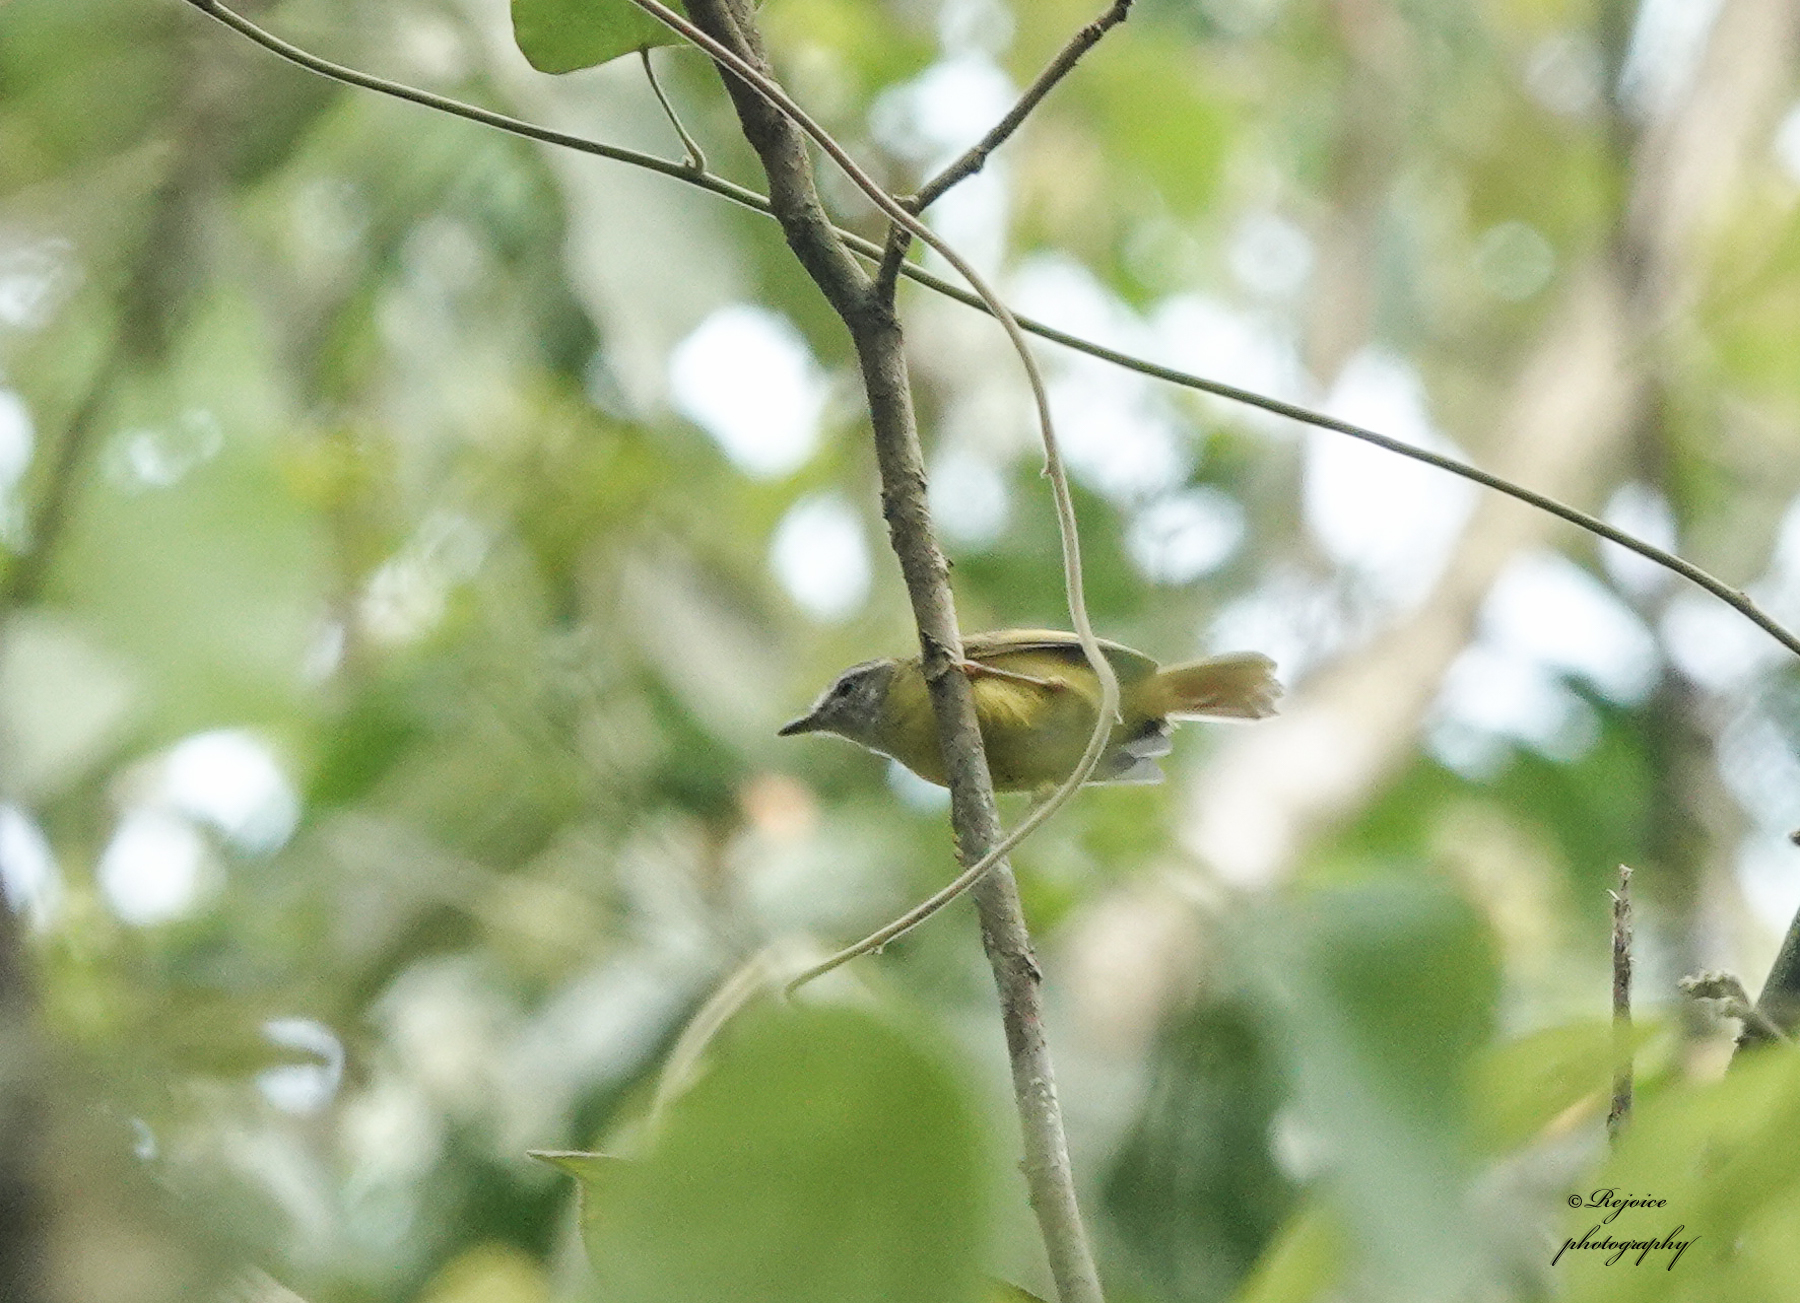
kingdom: Animalia
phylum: Chordata
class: Aves
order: Passeriformes
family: Phylloscopidae
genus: Phylloscopus
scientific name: Phylloscopus xanthoschistos
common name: Grey-hooded warbler
